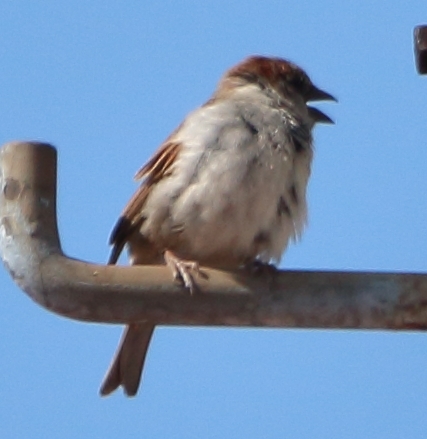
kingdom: Animalia
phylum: Chordata
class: Aves
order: Passeriformes
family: Passeridae
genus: Passer
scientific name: Passer domesticus
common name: House sparrow
